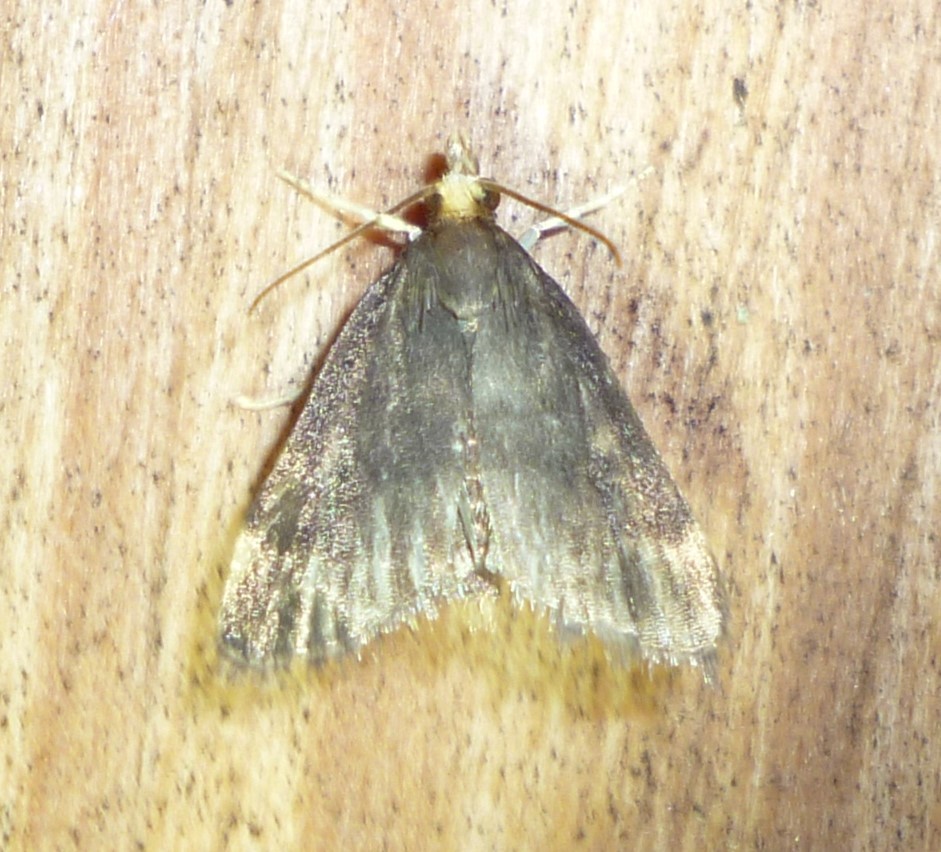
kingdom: Animalia
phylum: Arthropoda
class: Insecta
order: Lepidoptera
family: Crambidae
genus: Pyrausta
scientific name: Pyrausta merrickalis
